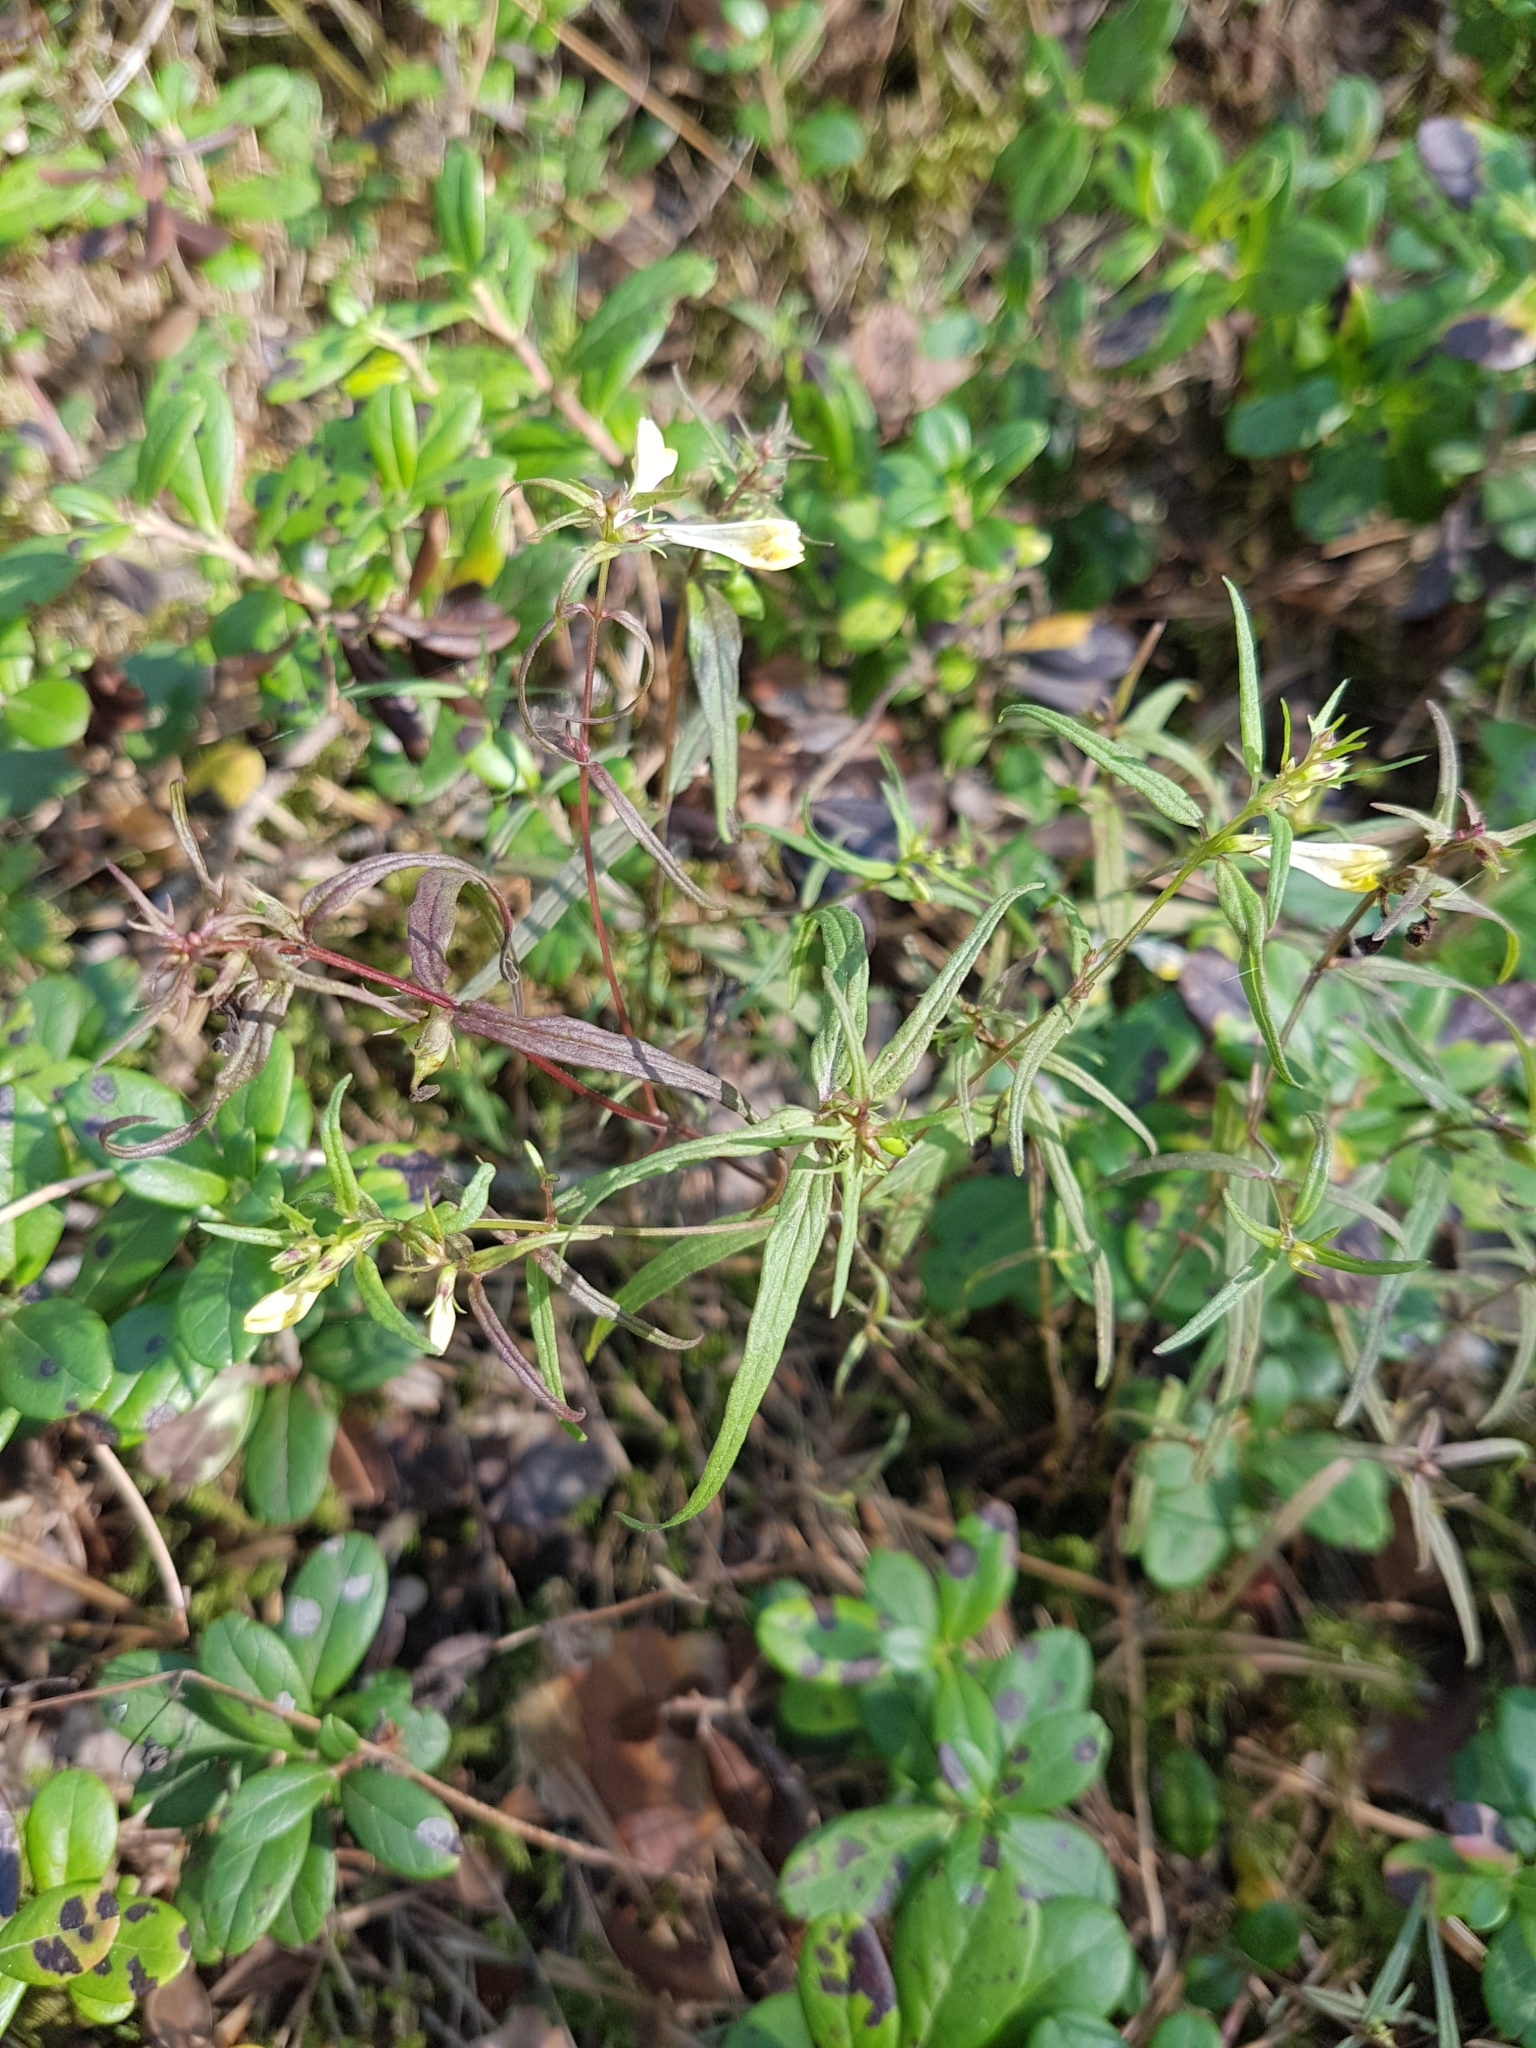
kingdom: Plantae
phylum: Tracheophyta
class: Magnoliopsida
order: Lamiales
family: Orobanchaceae
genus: Melampyrum
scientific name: Melampyrum pratense
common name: Common cow-wheat
